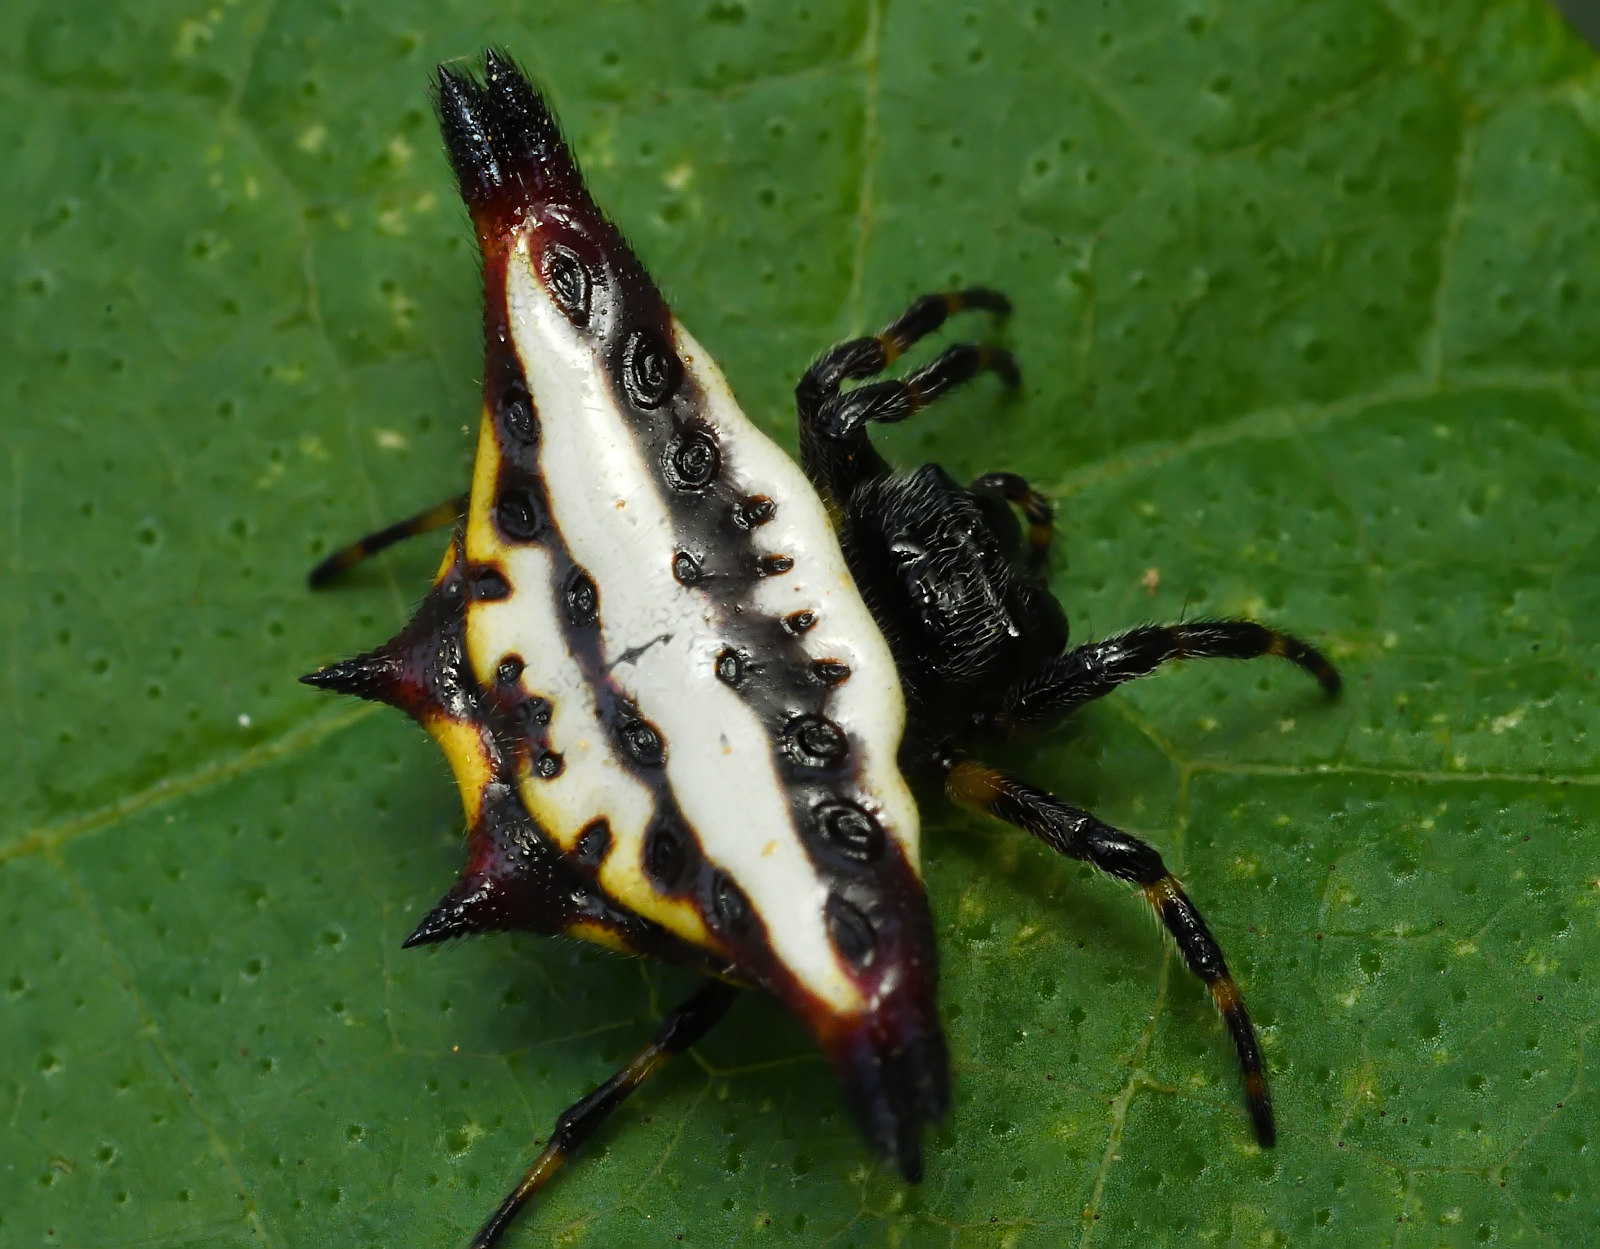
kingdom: Animalia
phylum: Arthropoda
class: Arachnida
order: Araneae
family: Araneidae
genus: Gasteracantha
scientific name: Gasteracantha geminata
